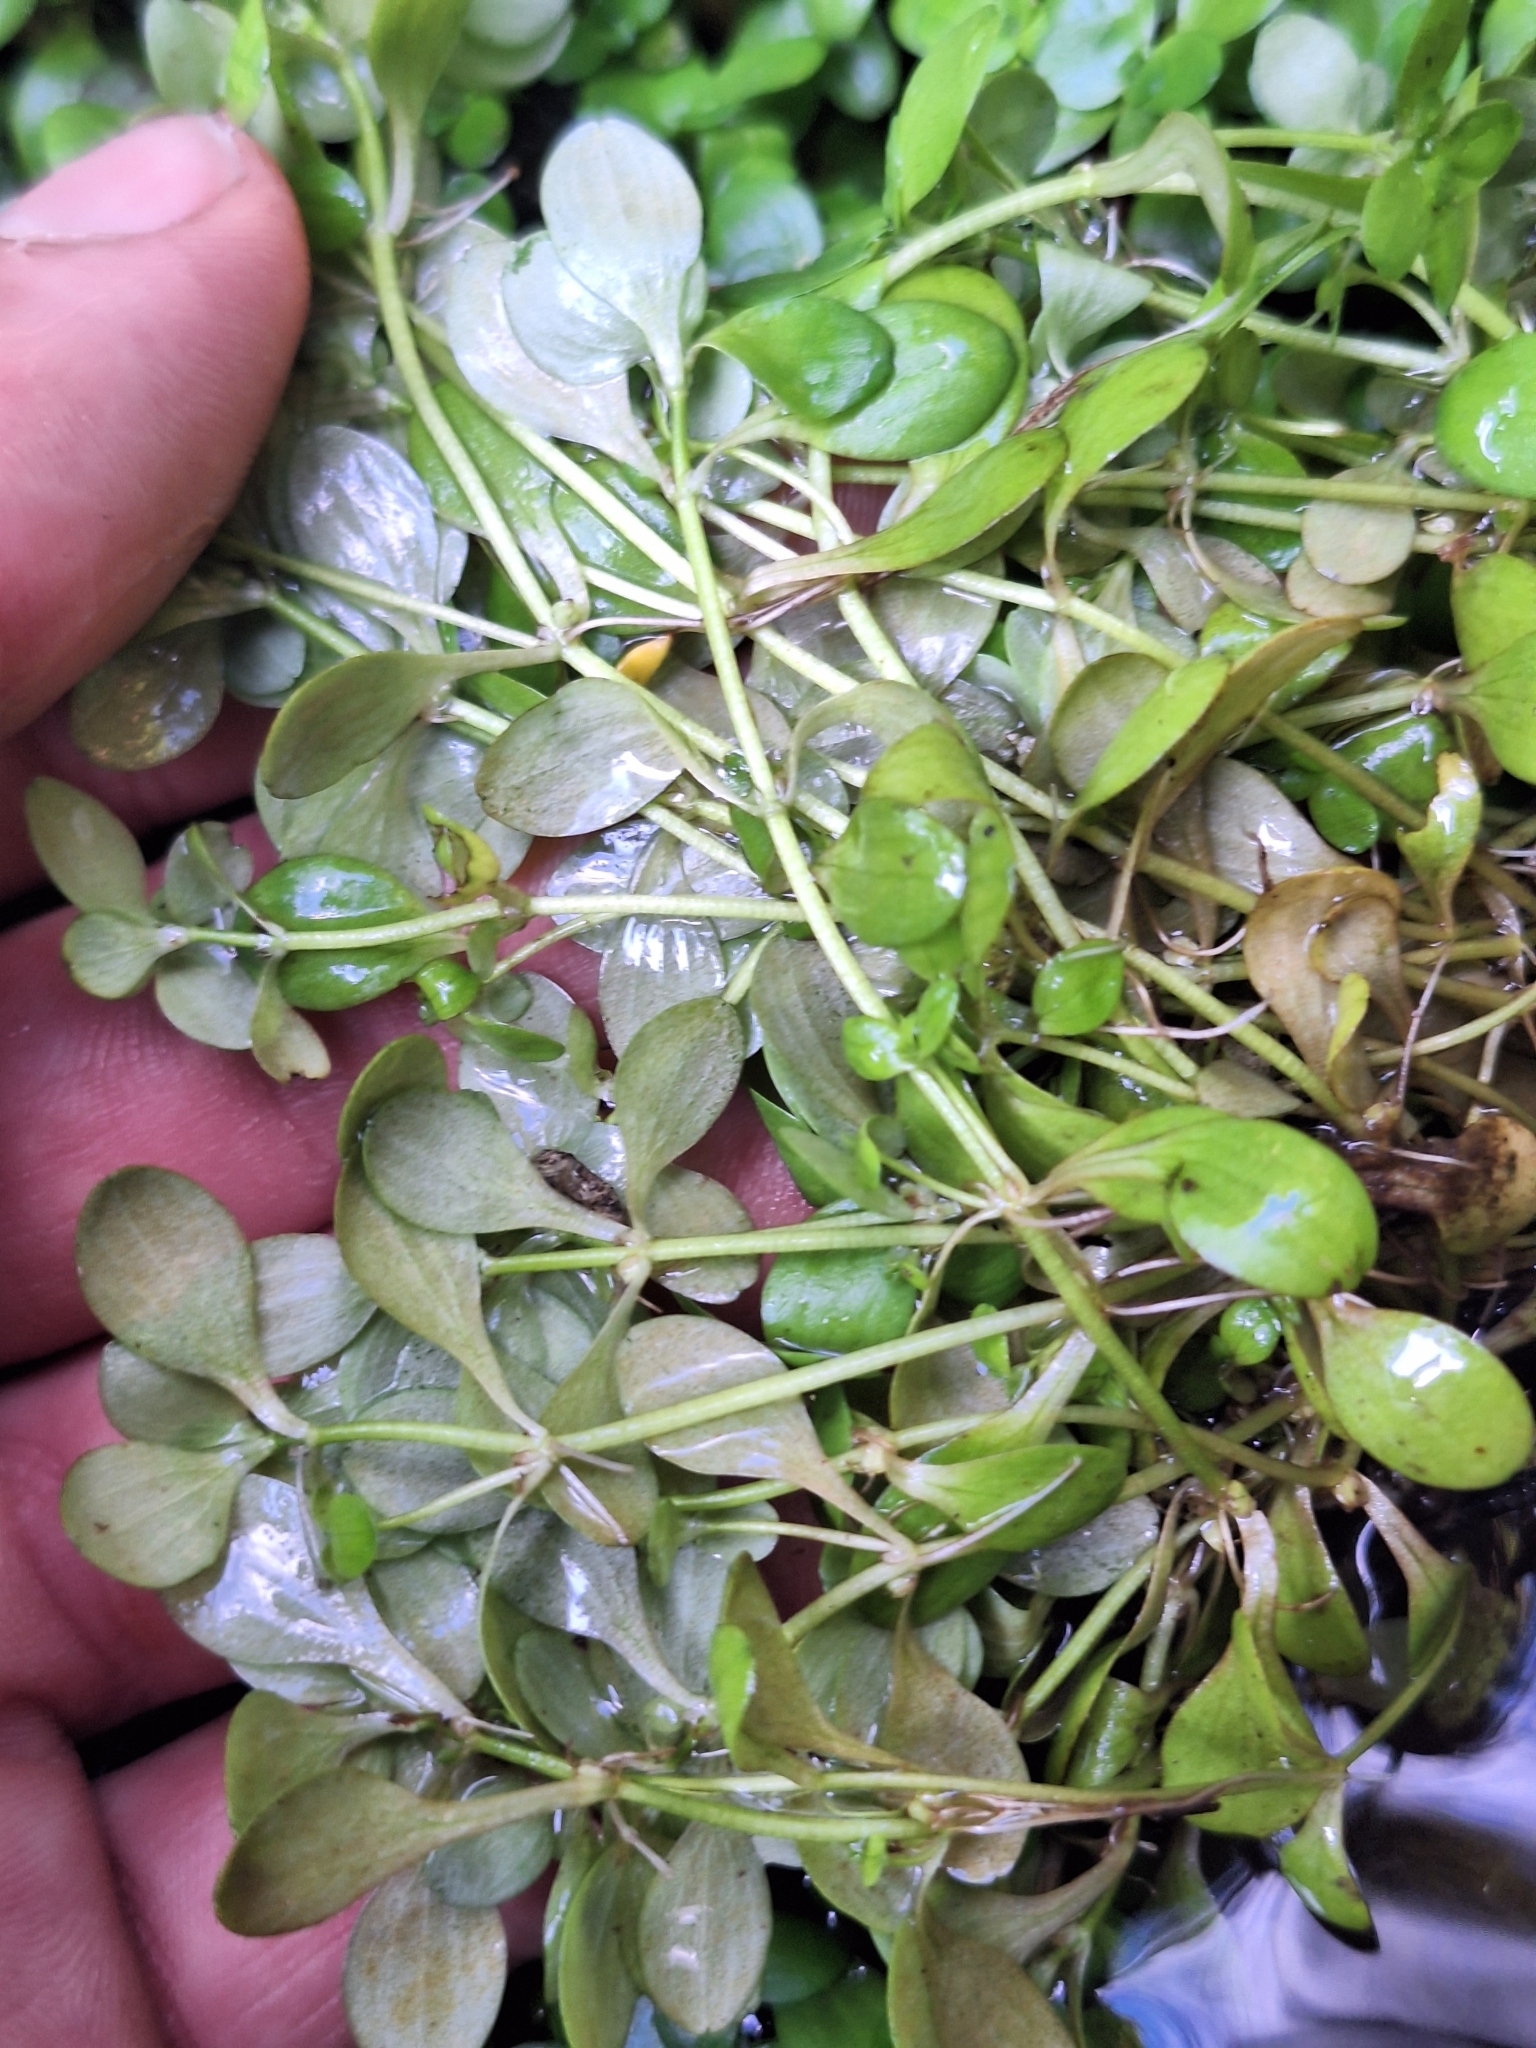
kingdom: Plantae
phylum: Tracheophyta
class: Magnoliopsida
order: Lamiales
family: Plantaginaceae
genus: Callitriche
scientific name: Callitriche stagnalis
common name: Common water-starwort
